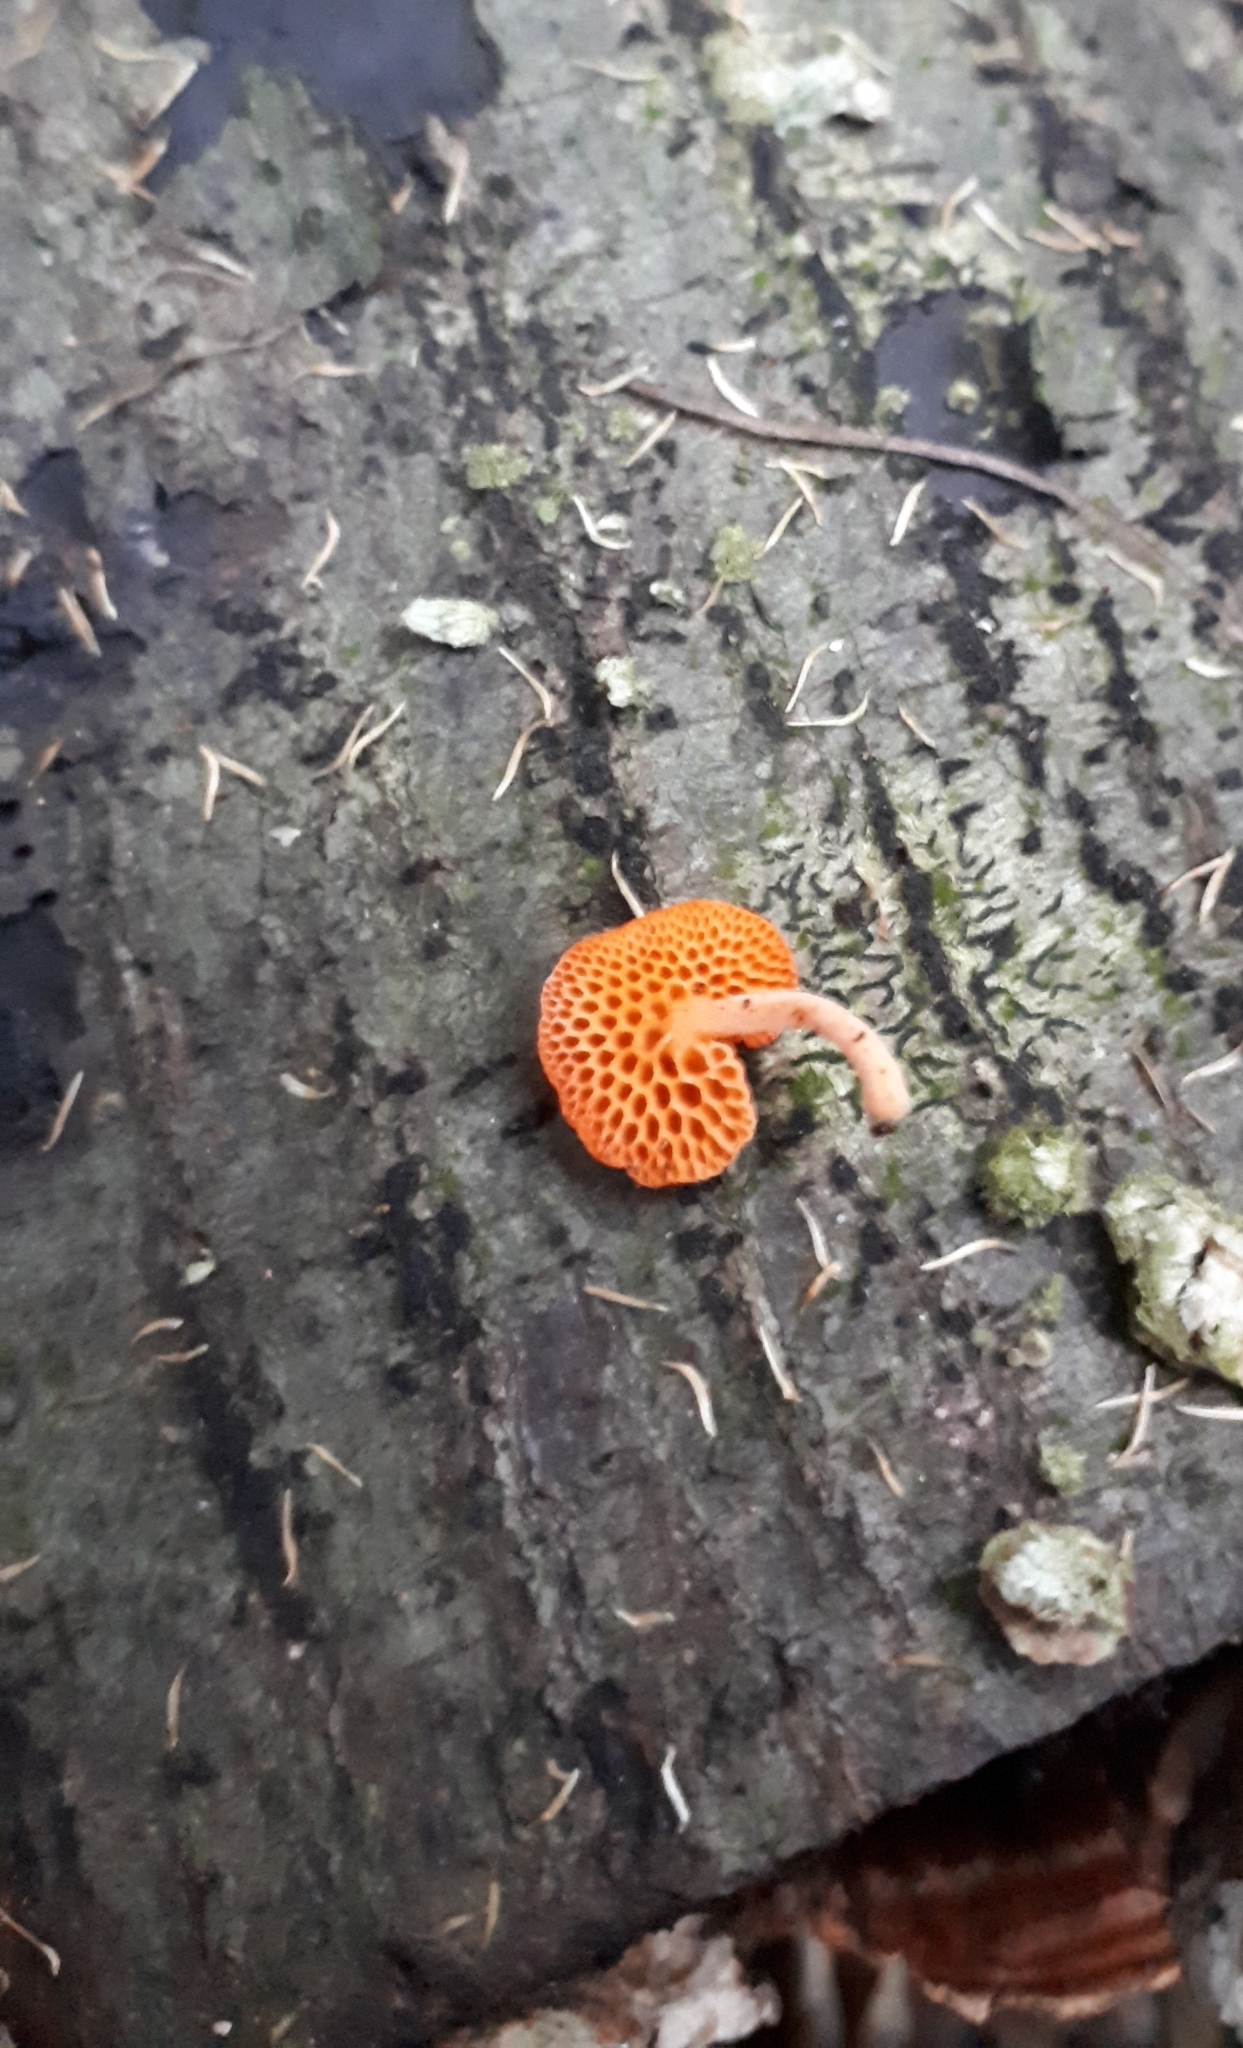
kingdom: Fungi
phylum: Basidiomycota
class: Agaricomycetes
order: Agaricales
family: Mycenaceae
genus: Favolaschia
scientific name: Favolaschia claudopus
